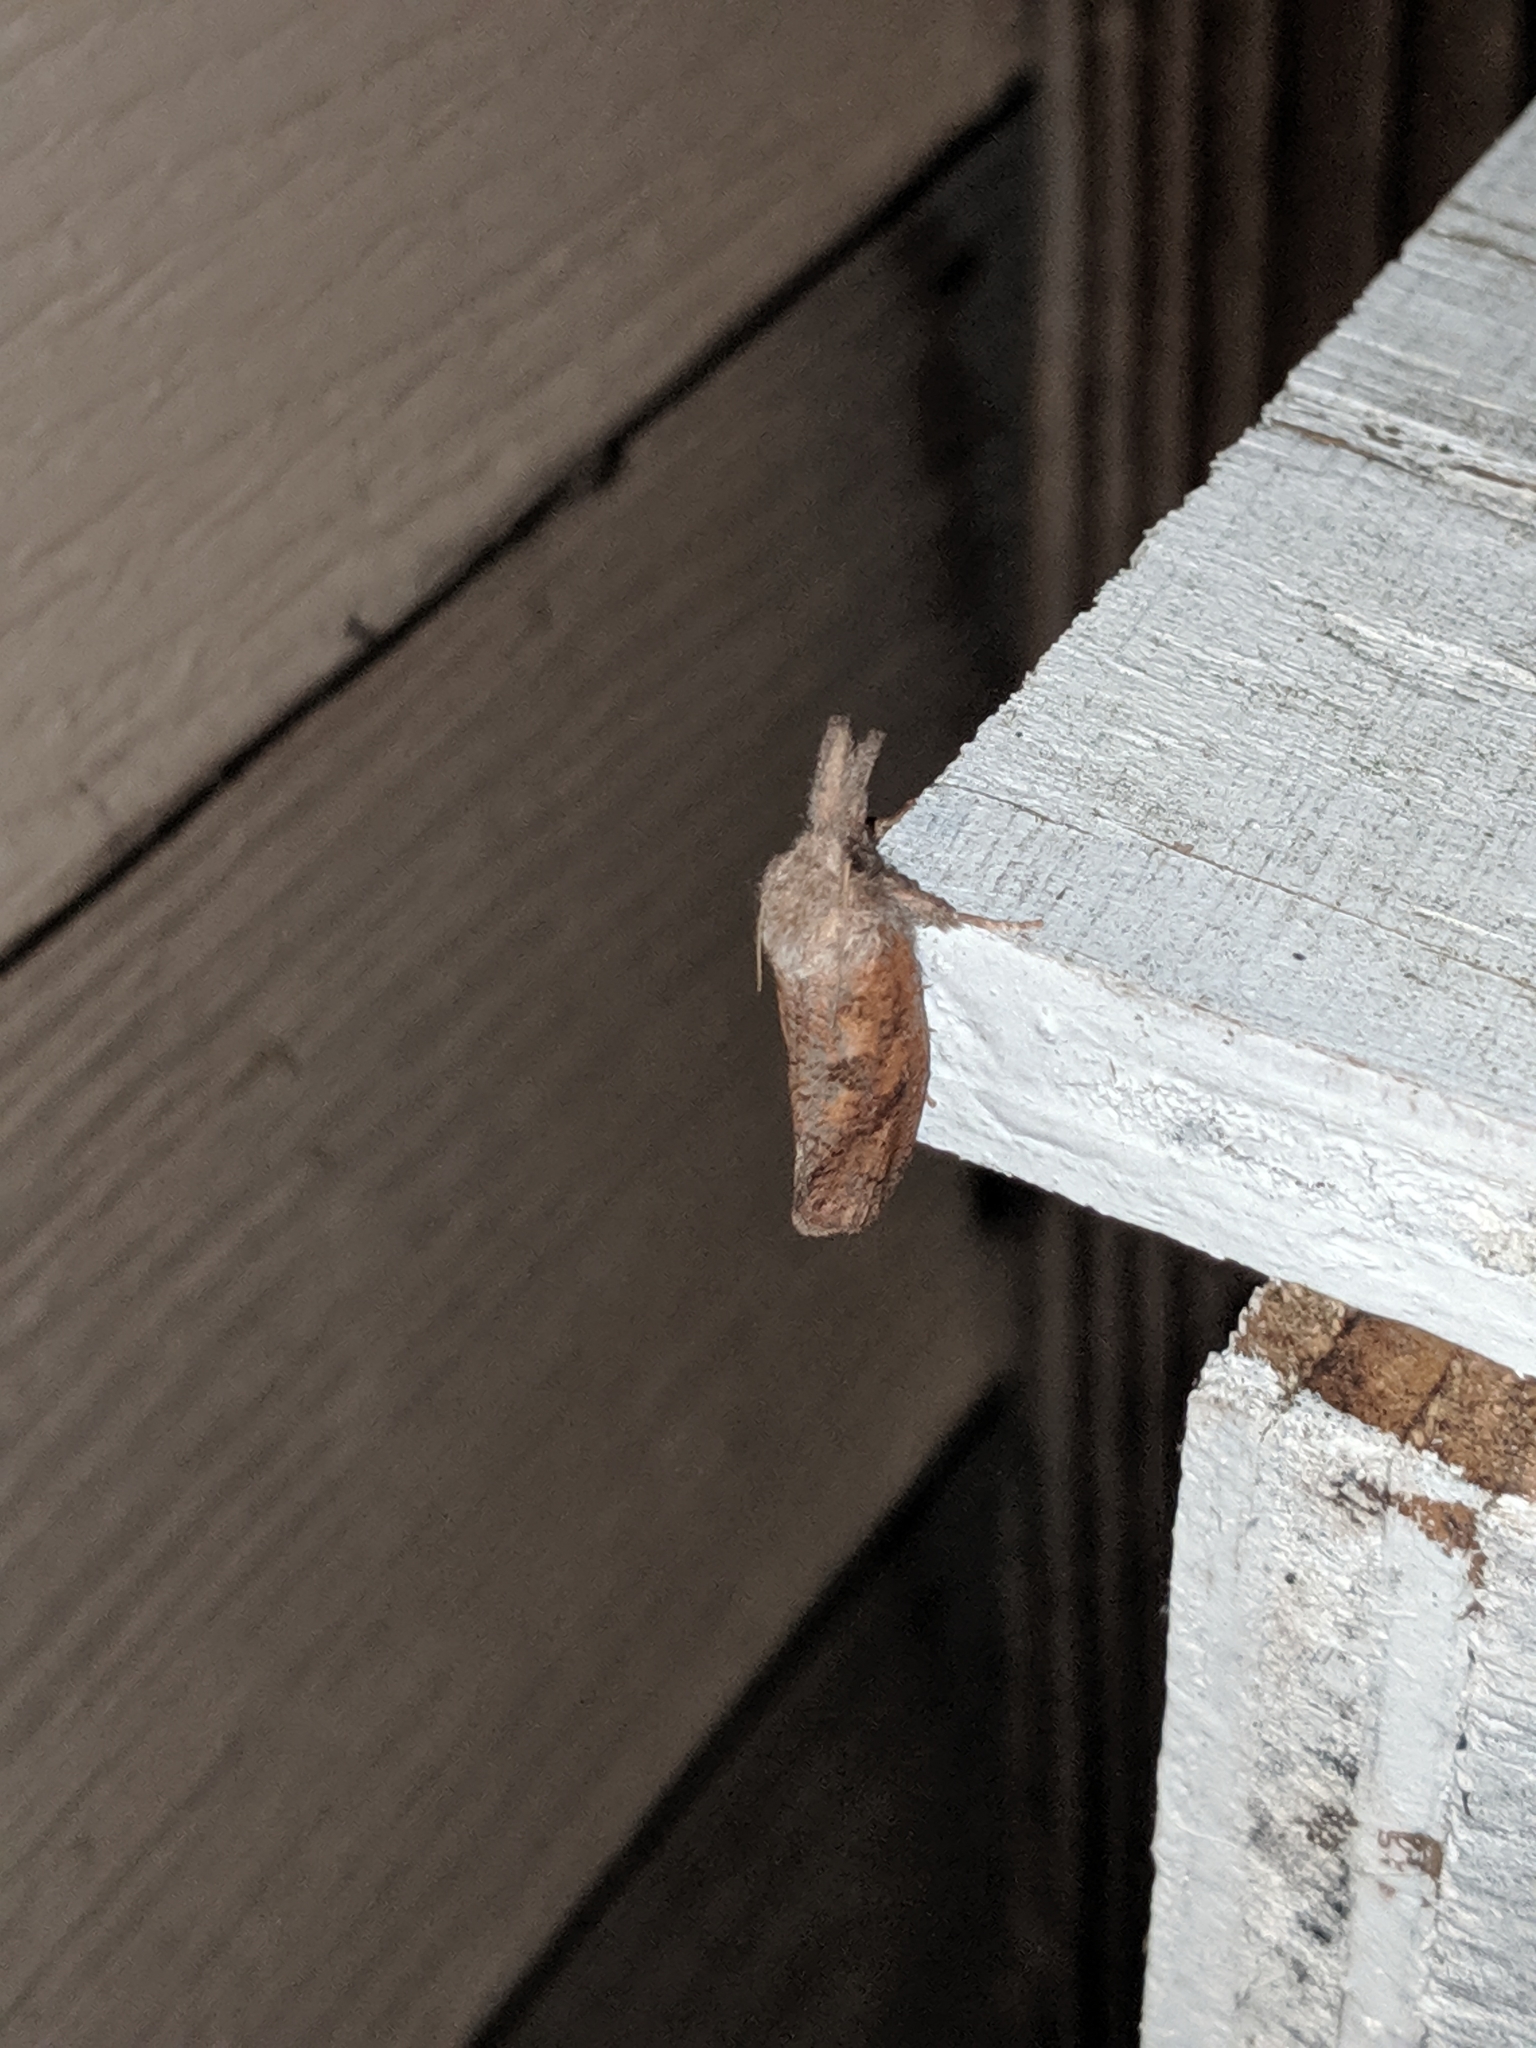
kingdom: Animalia
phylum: Arthropoda
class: Insecta
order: Lepidoptera
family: Tineidae
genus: Acrolophus
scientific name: Acrolophus plumifrontella
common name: Eastern grass tubeworm moth
